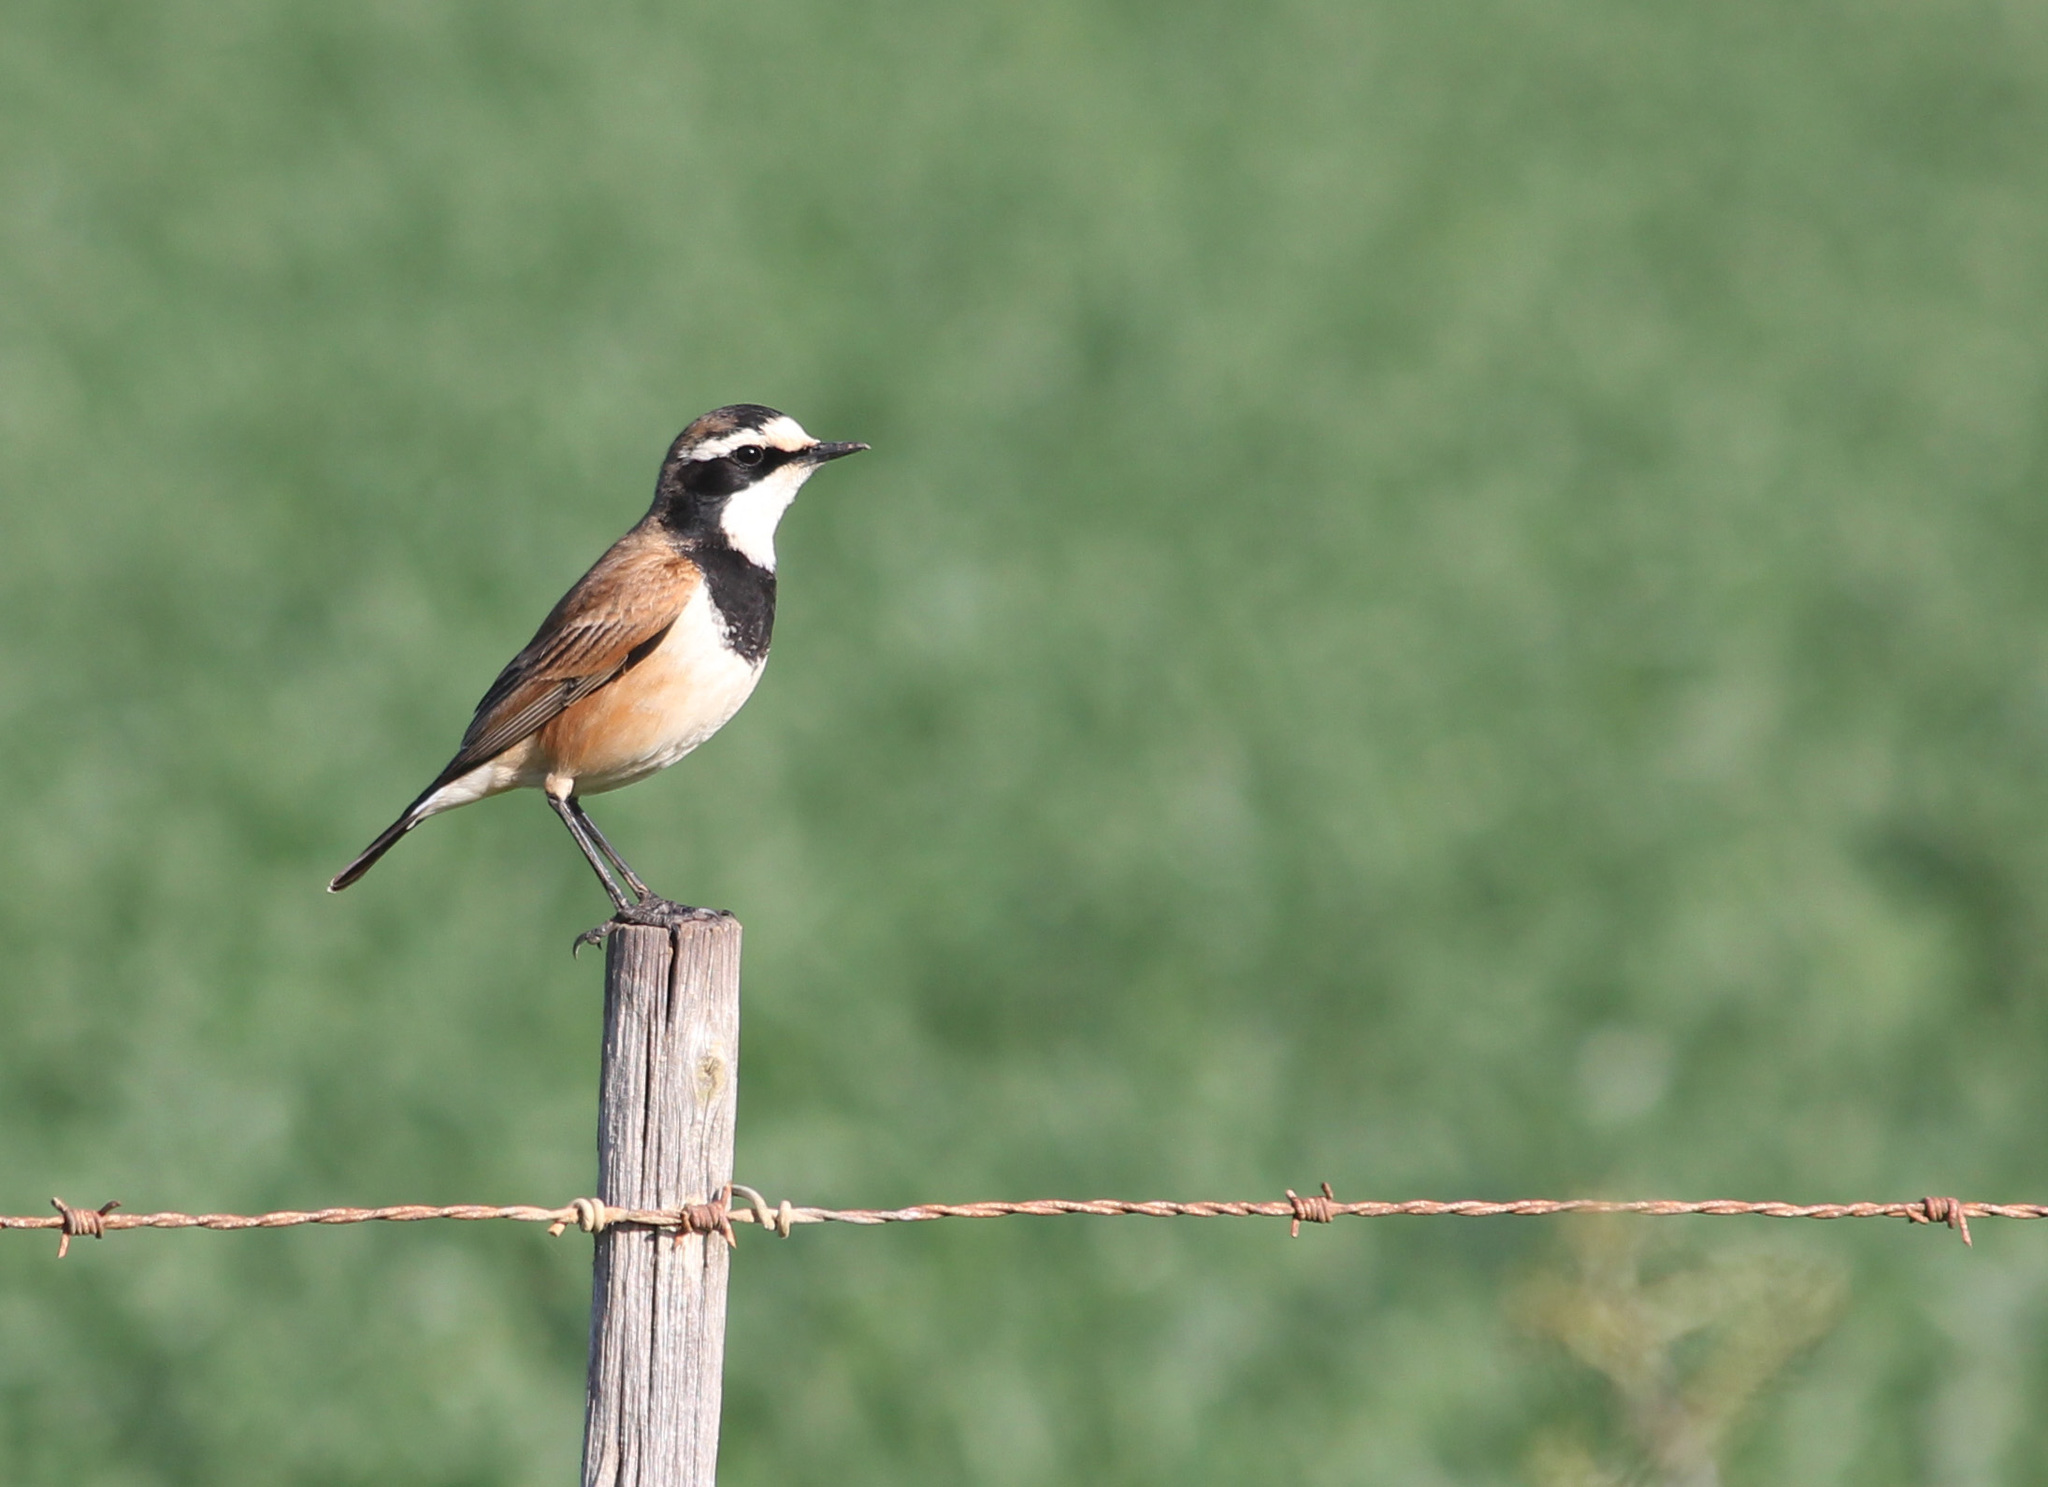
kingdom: Animalia
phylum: Chordata
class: Aves
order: Passeriformes
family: Muscicapidae
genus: Oenanthe
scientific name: Oenanthe pileata
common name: Capped wheatear
